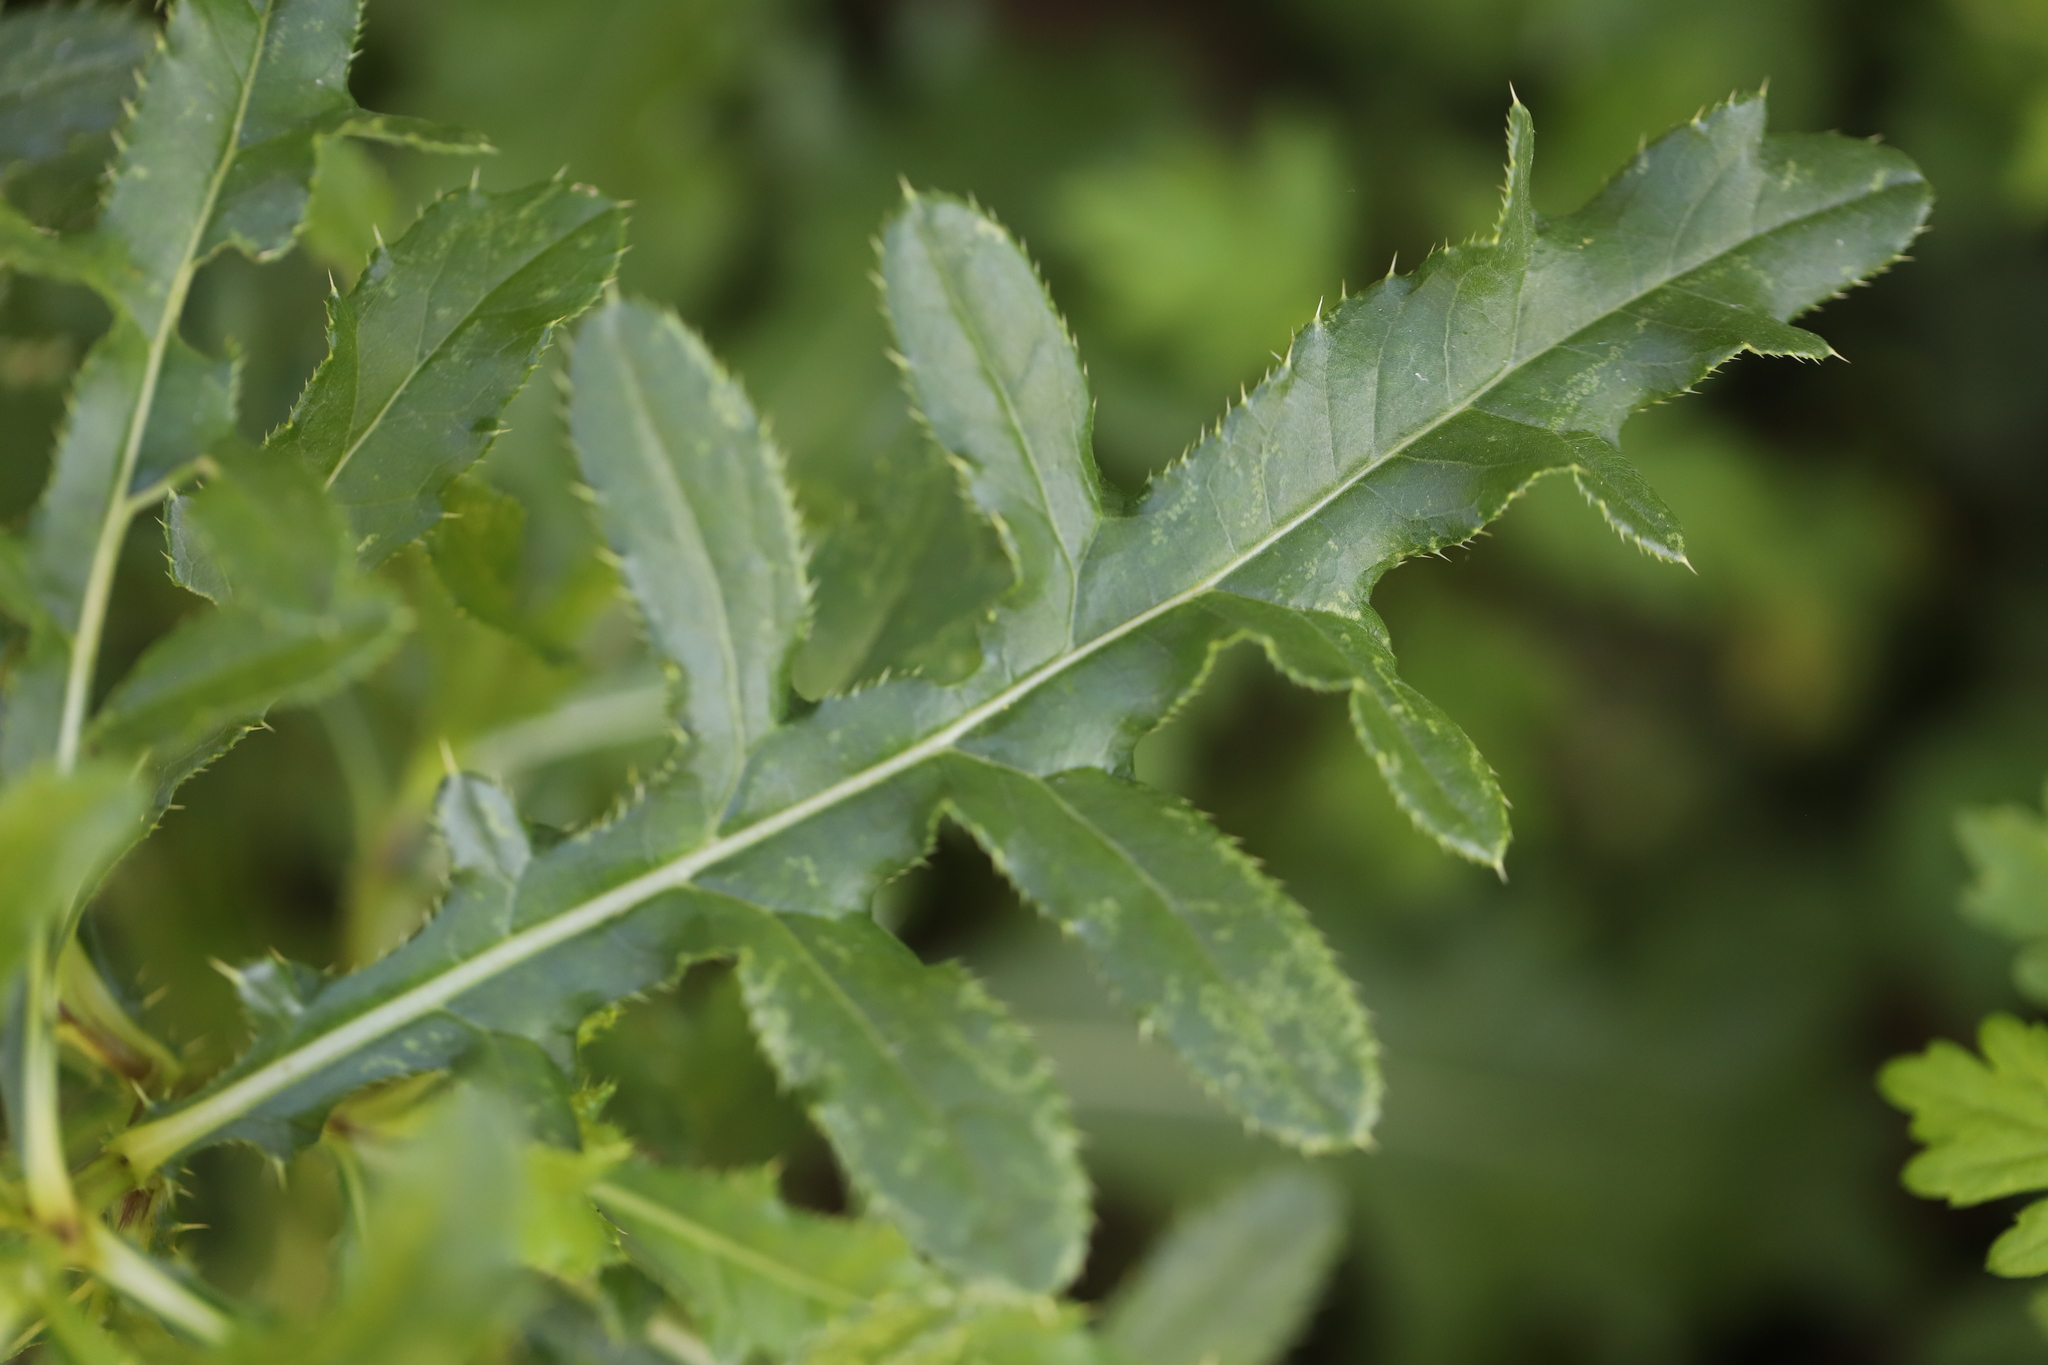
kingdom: Plantae
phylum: Tracheophyta
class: Magnoliopsida
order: Asterales
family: Asteraceae
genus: Cirsium
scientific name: Cirsium arvense
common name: Creeping thistle
